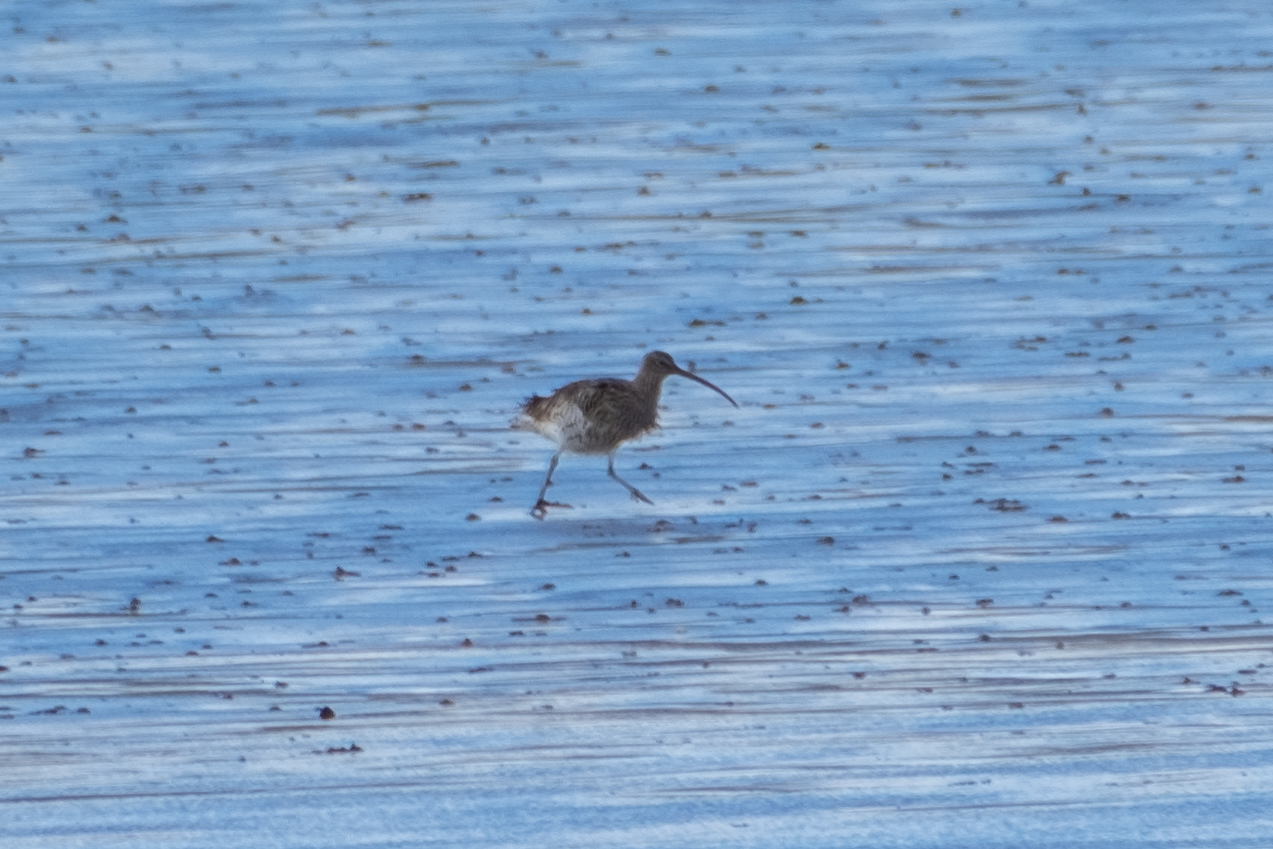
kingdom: Animalia
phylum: Chordata
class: Aves
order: Charadriiformes
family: Scolopacidae
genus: Numenius
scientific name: Numenius arquata
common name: Eurasian curlew
